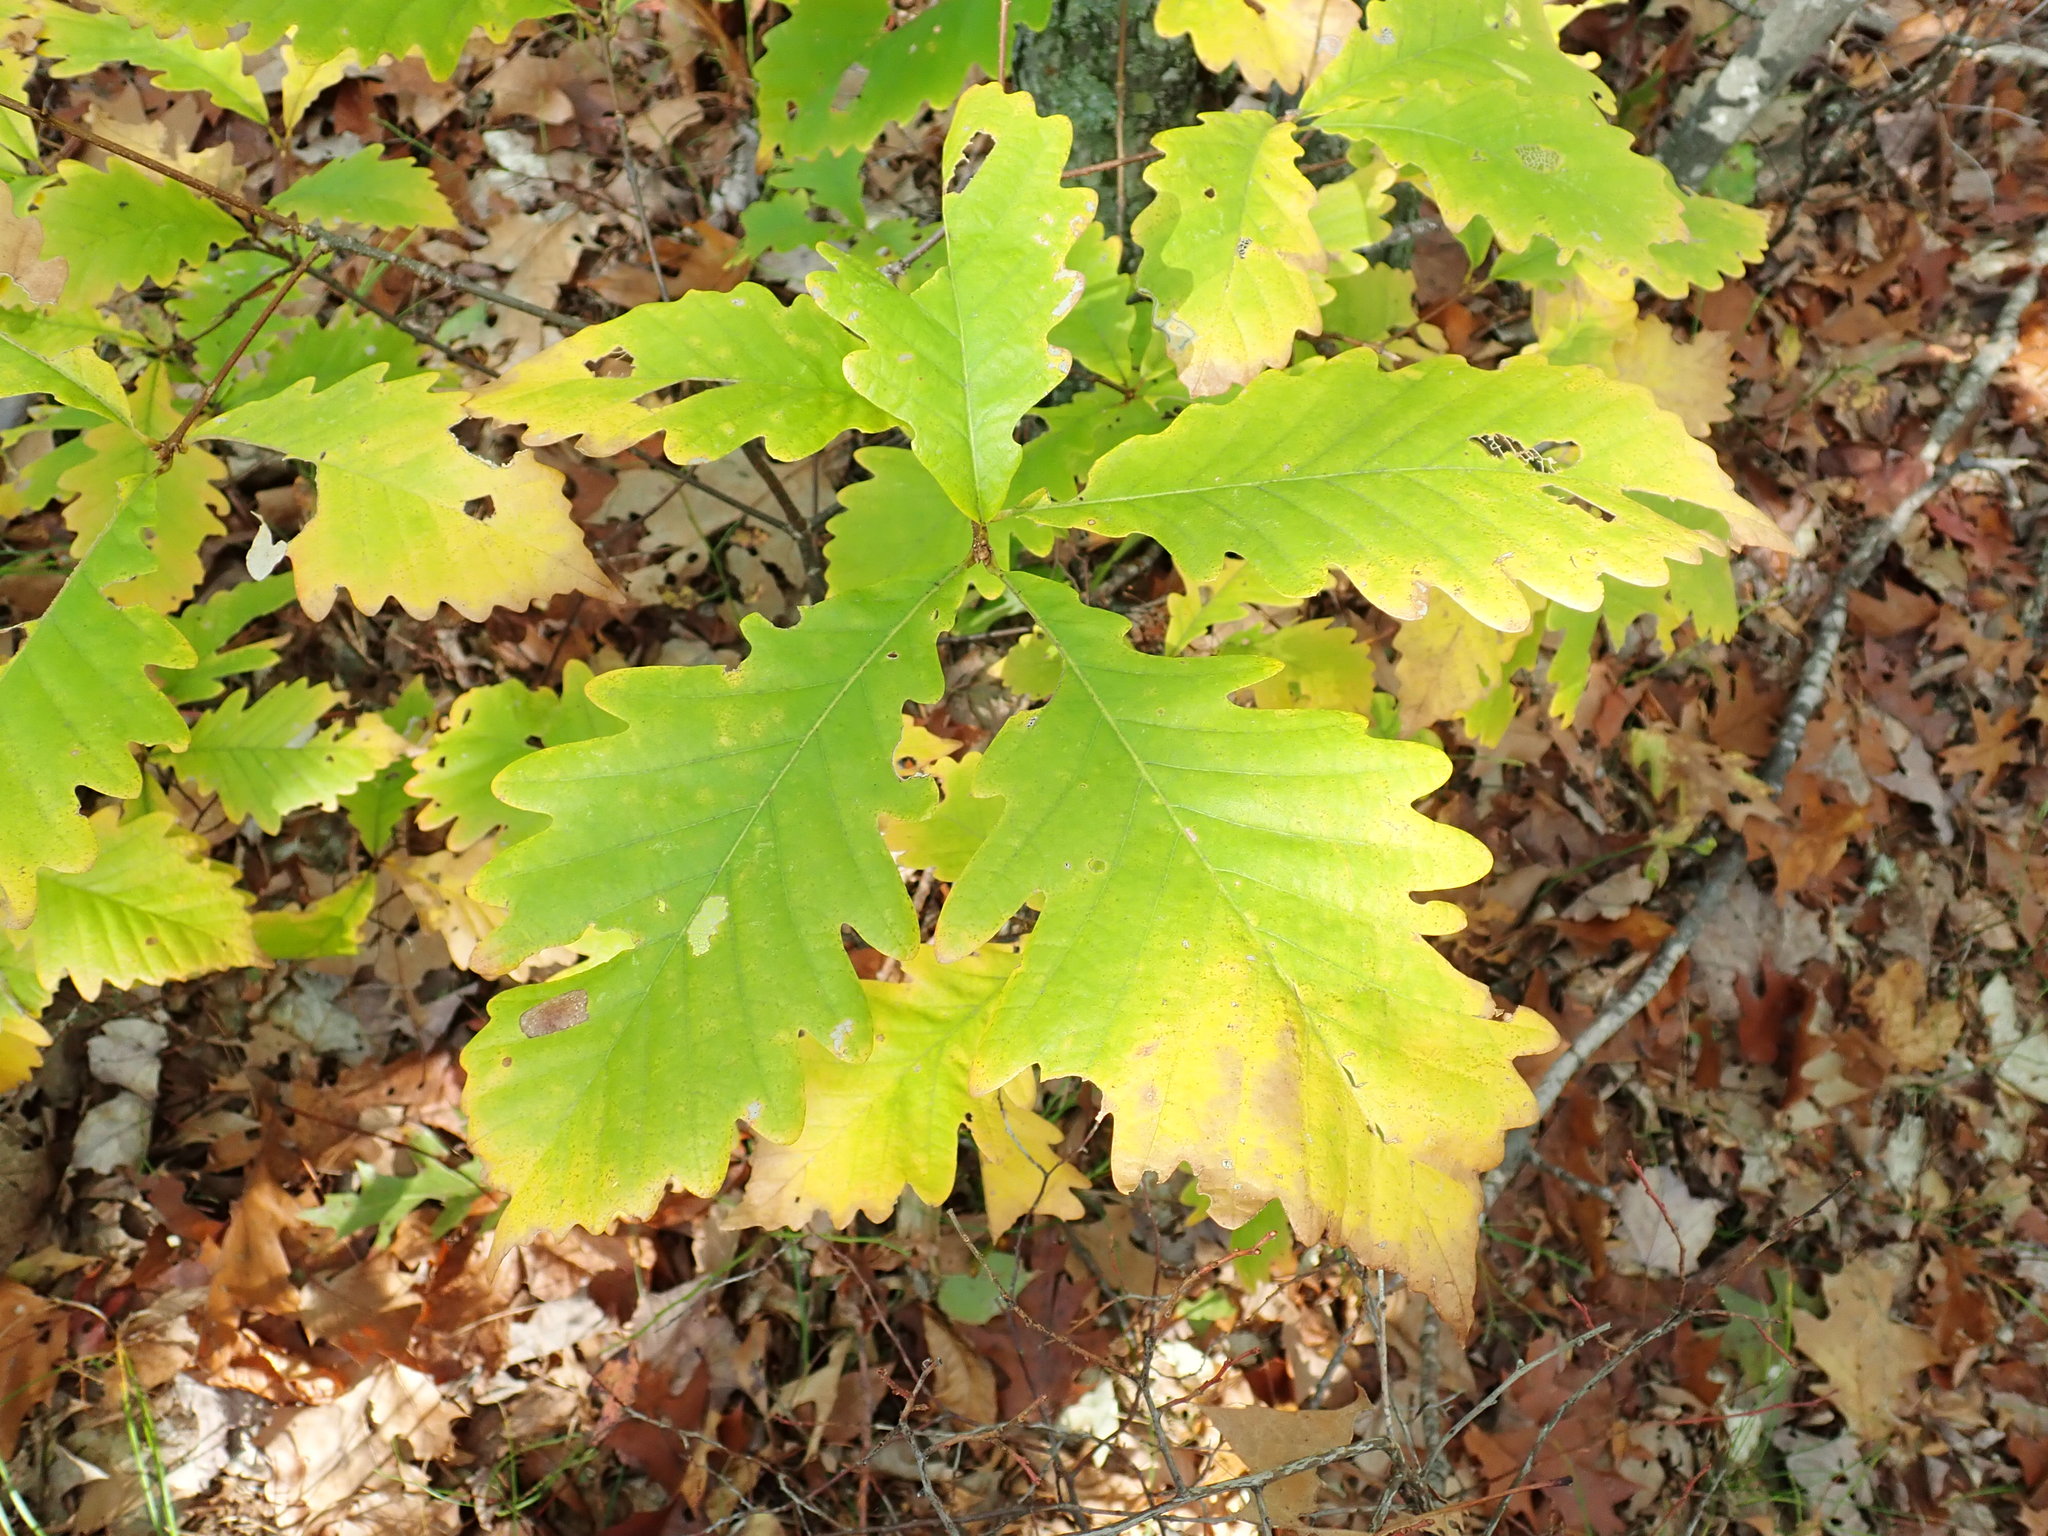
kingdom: Plantae
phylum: Tracheophyta
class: Magnoliopsida
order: Fagales
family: Fagaceae
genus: Quercus
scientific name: Quercus montana
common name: Chestnut oak
